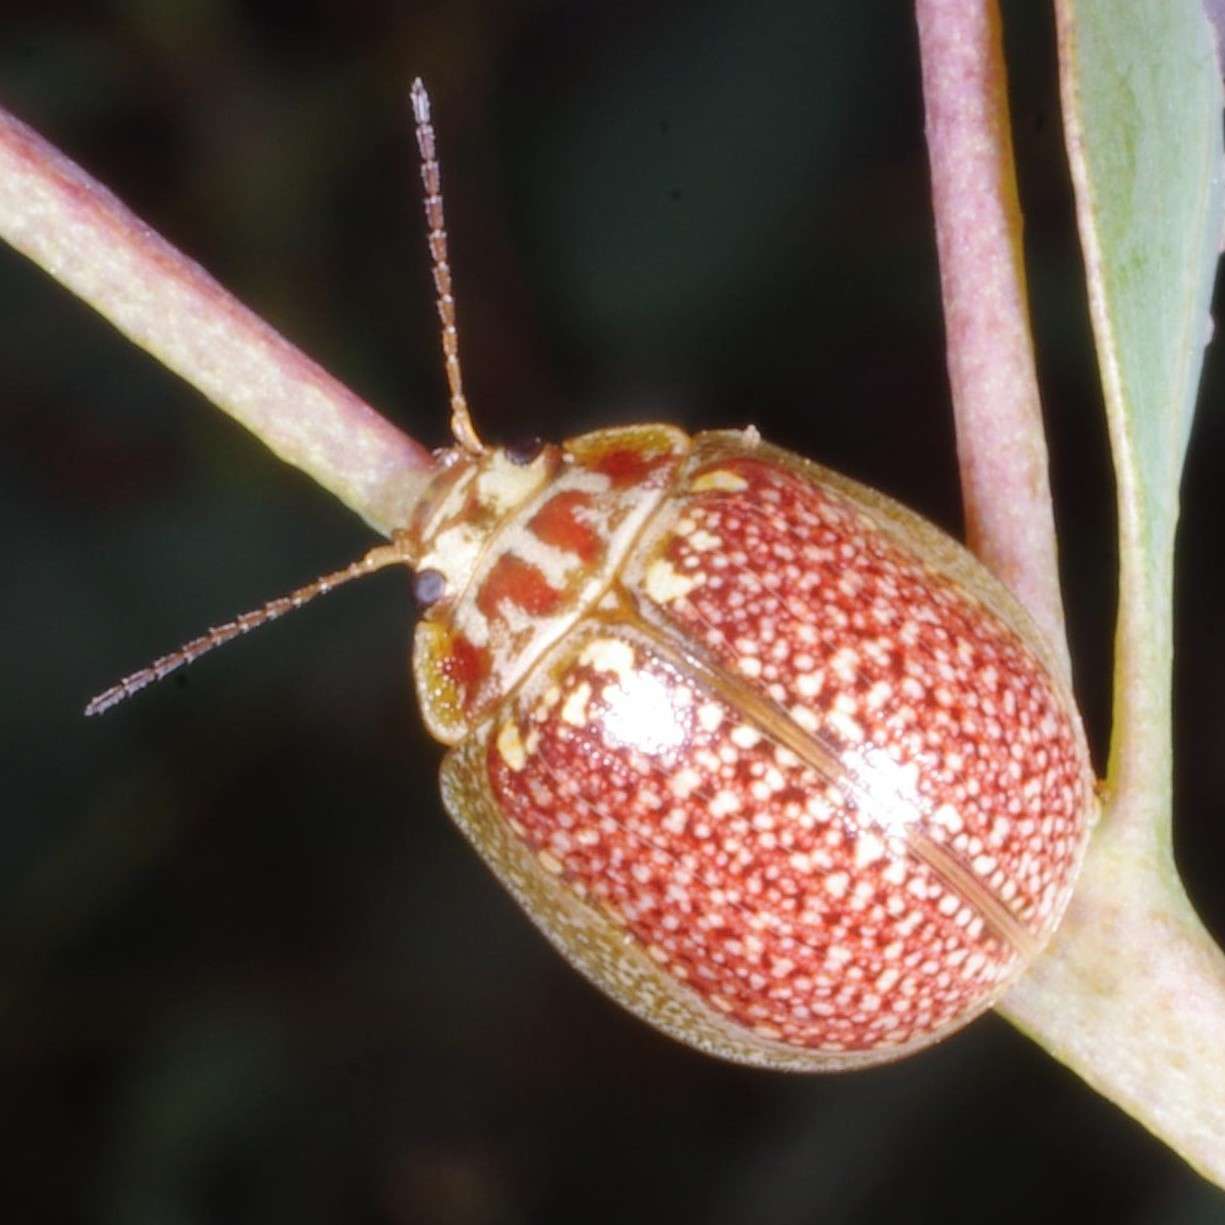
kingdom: Animalia
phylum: Arthropoda
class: Insecta
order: Coleoptera
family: Chrysomelidae
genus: Paropsisterna
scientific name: Paropsisterna decolorata
